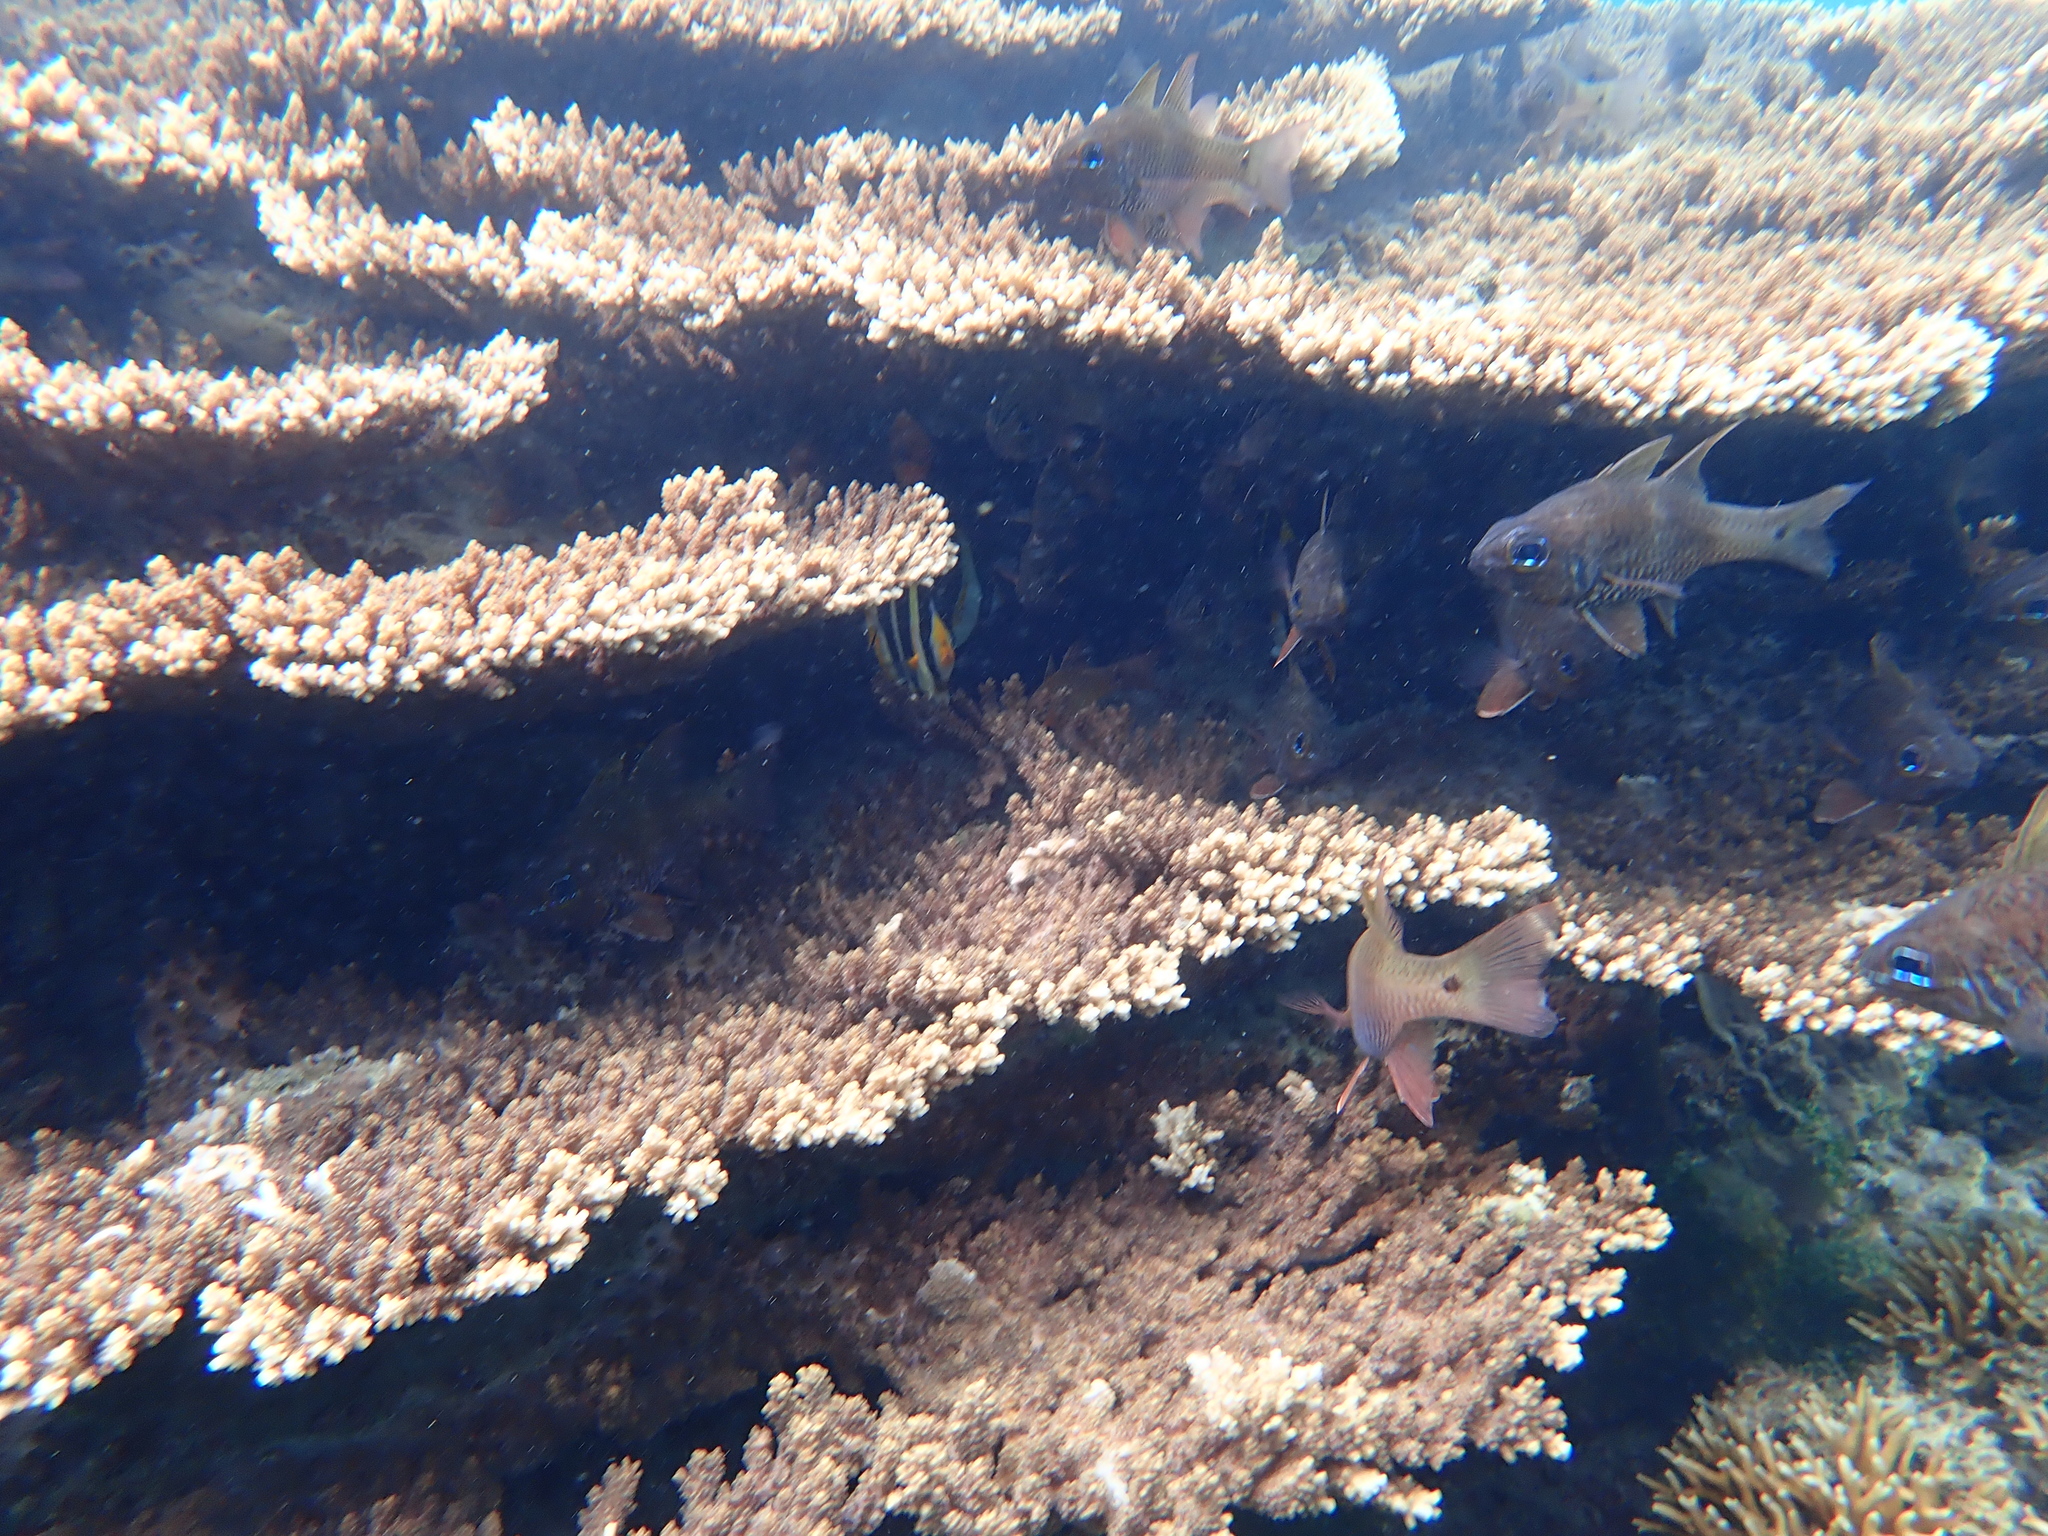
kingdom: Animalia
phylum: Chordata
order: Perciformes
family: Chaetodontidae
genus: Chaetodon
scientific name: Chaetodon tricinctus
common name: Three-striped butterflyfish
